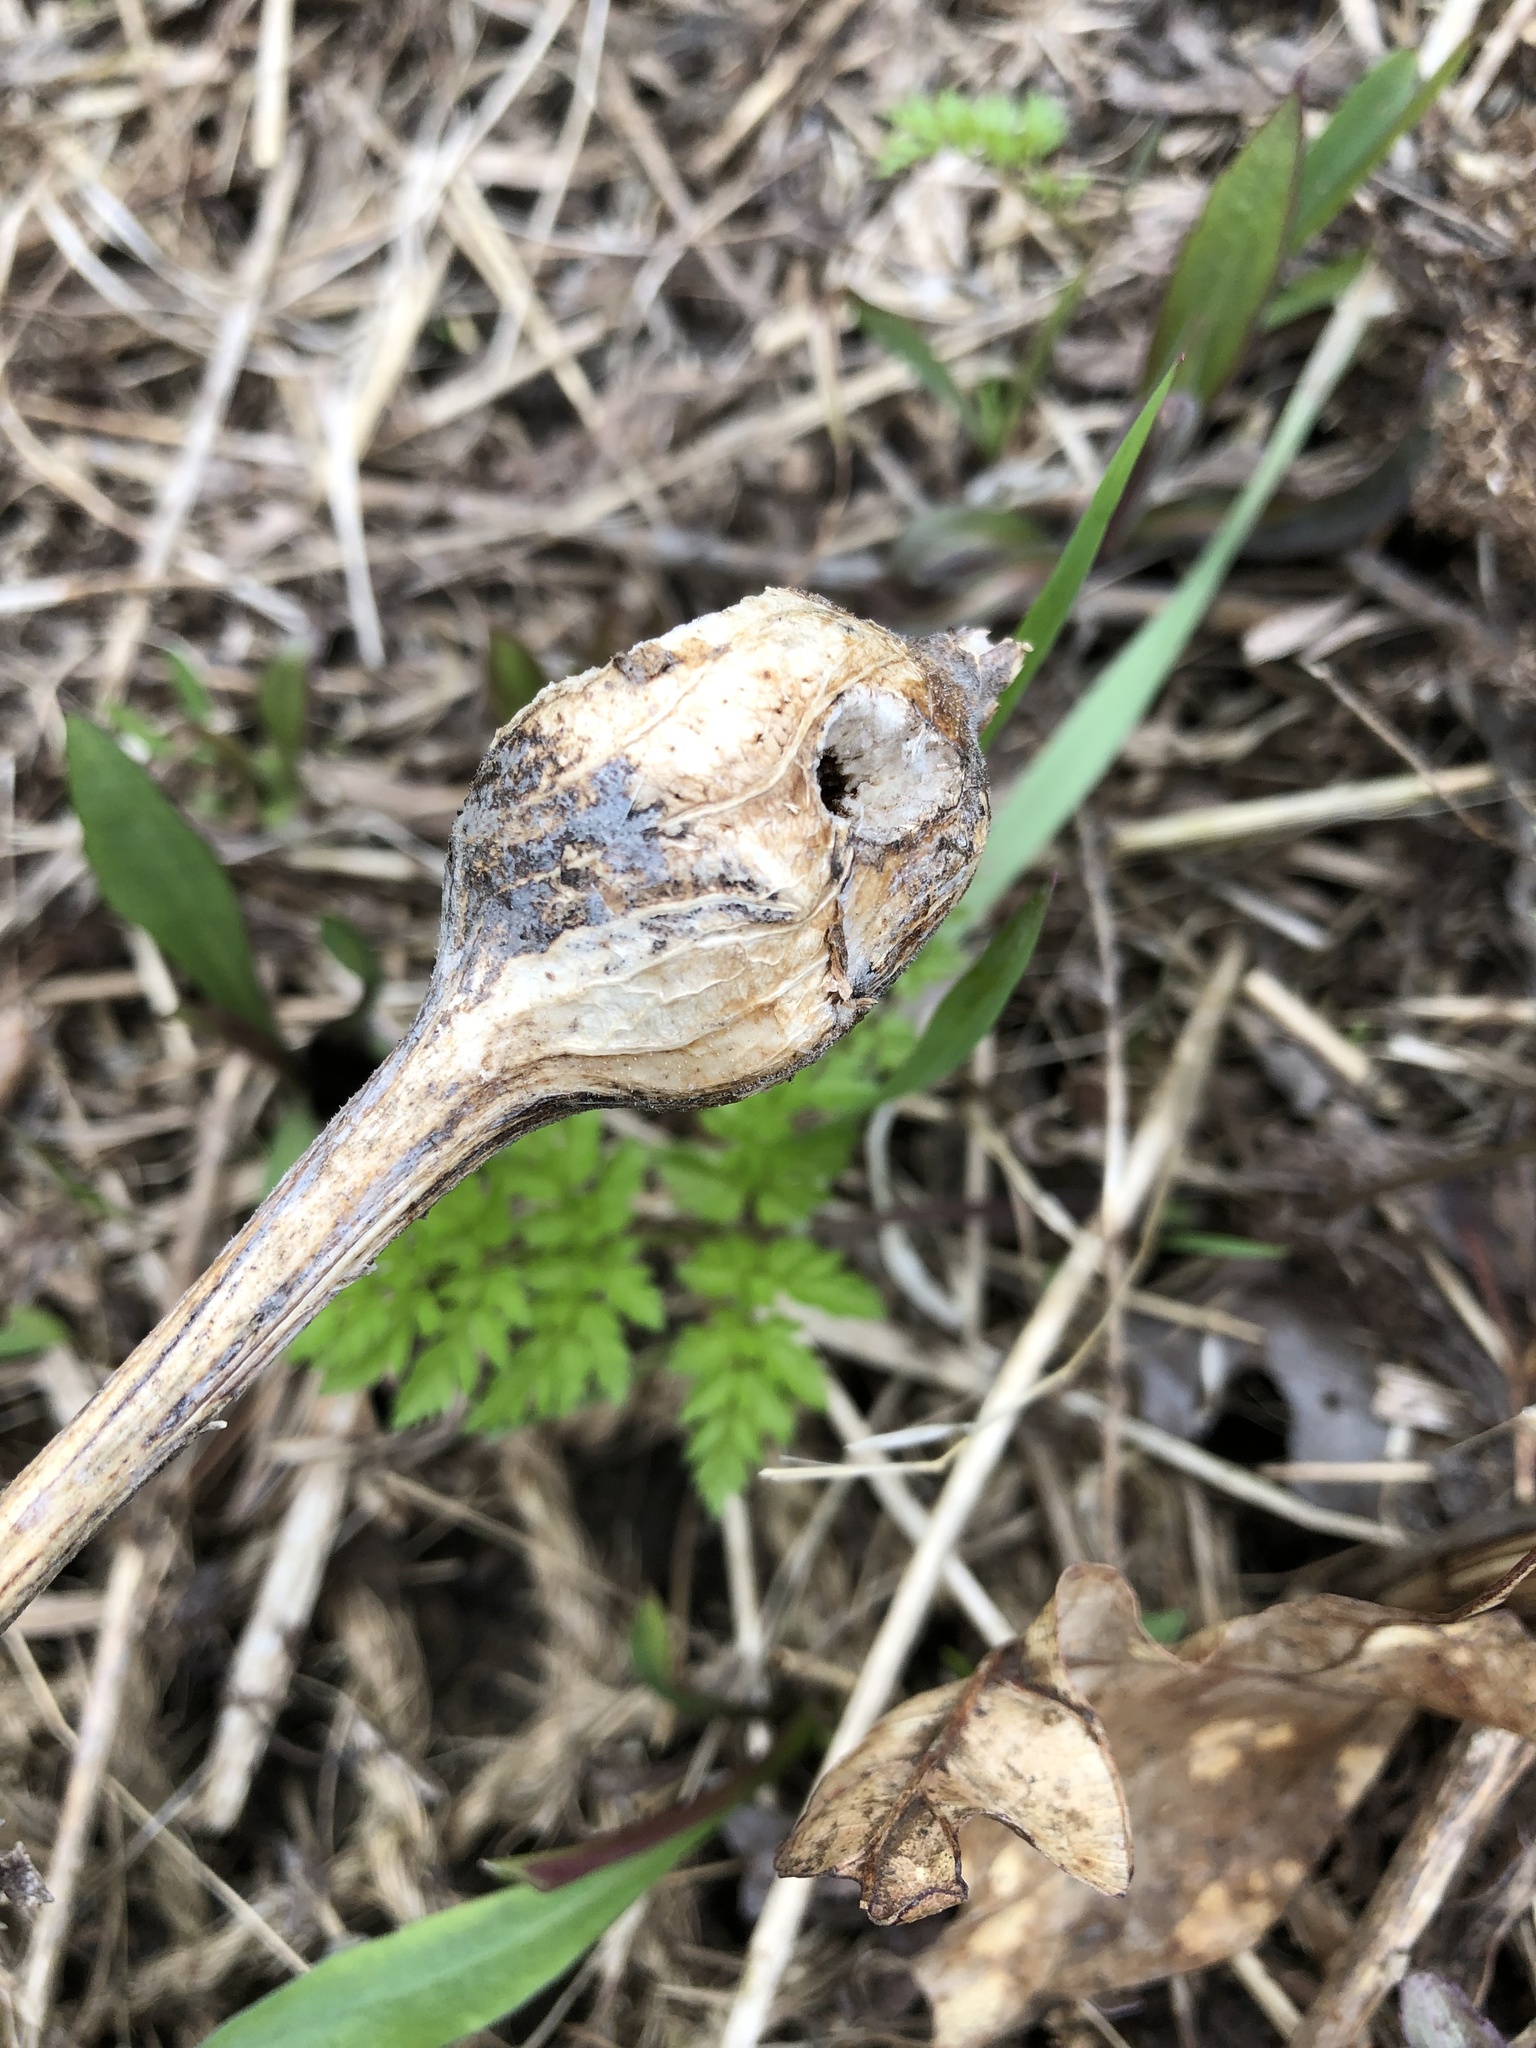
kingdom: Animalia
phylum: Arthropoda
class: Insecta
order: Diptera
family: Tephritidae
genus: Eurosta
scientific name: Eurosta solidaginis
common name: Goldenrod gall fly
